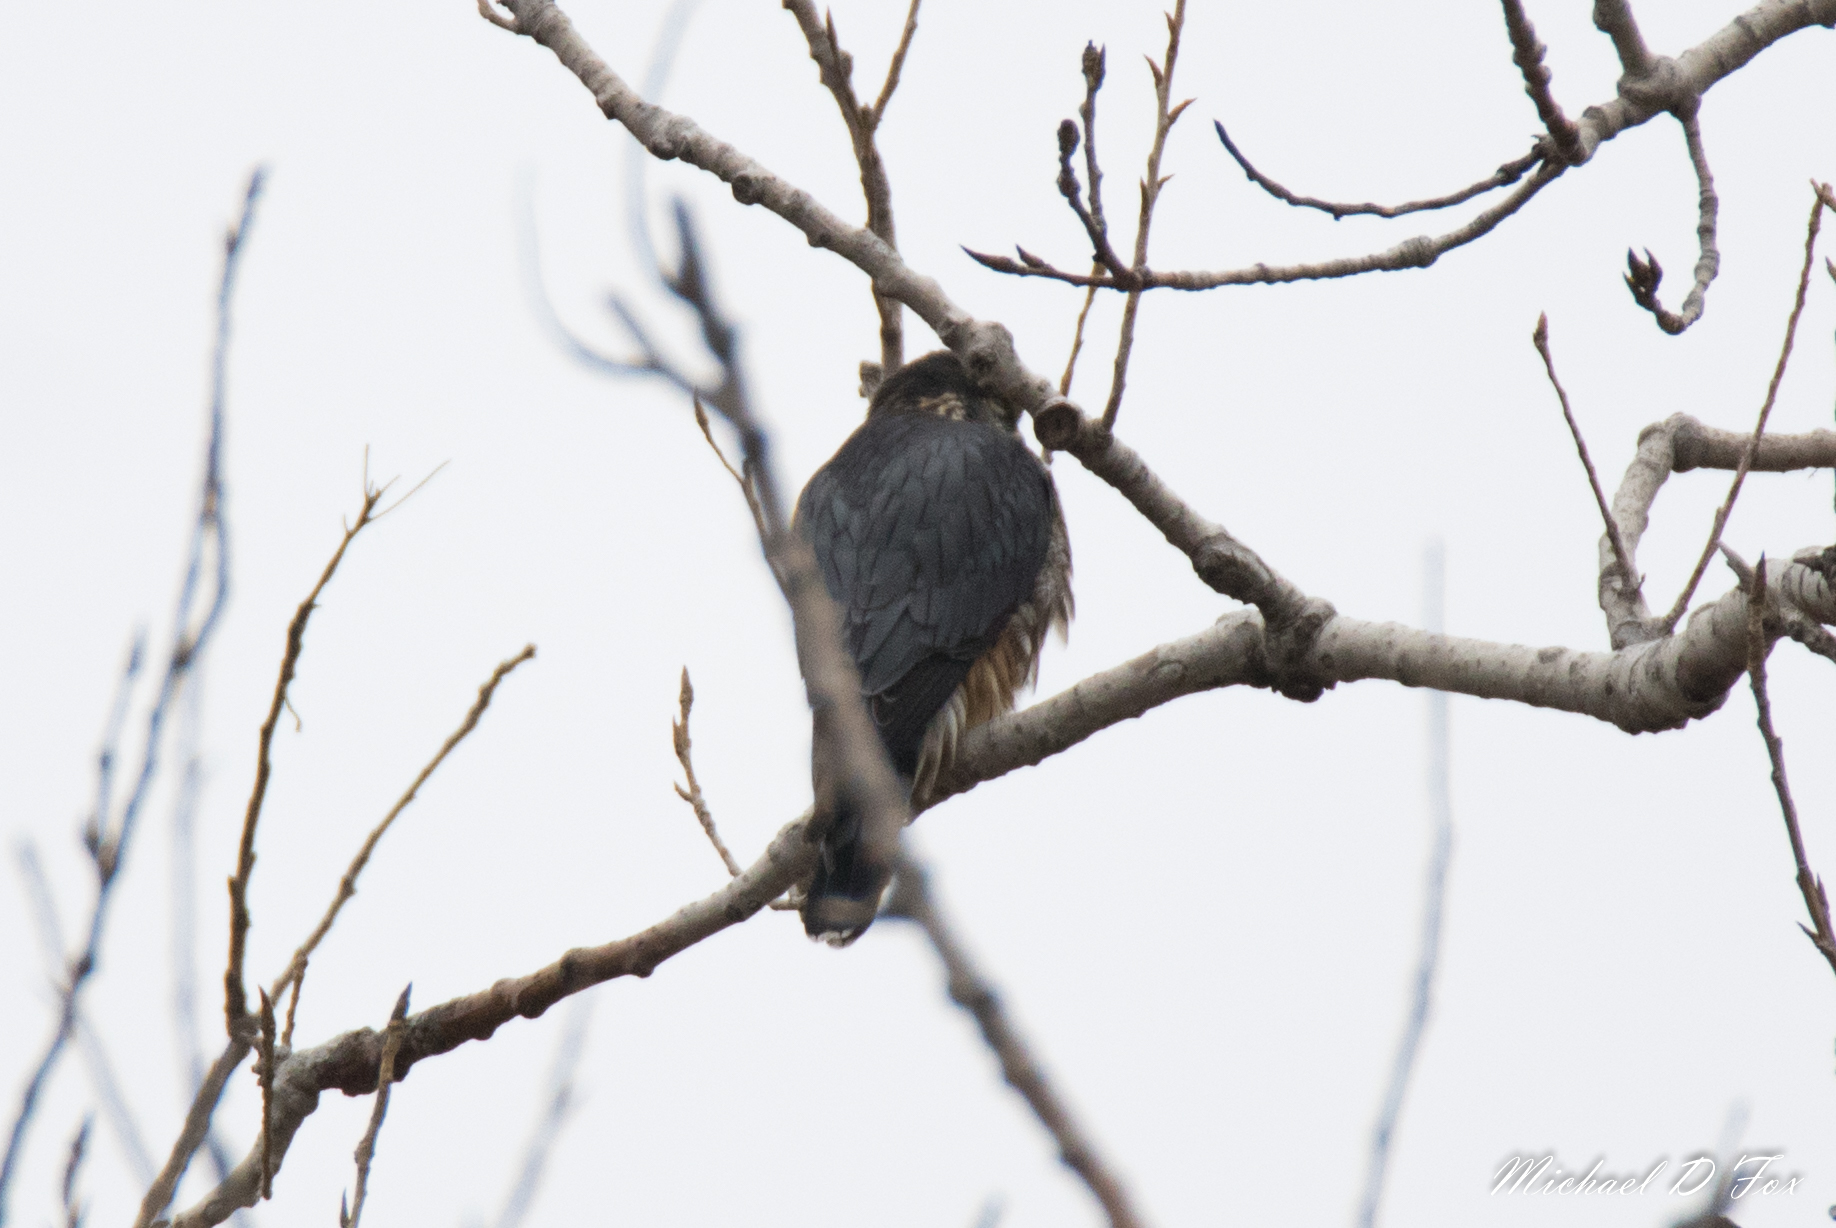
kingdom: Animalia
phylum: Chordata
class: Aves
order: Falconiformes
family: Falconidae
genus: Falco
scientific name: Falco columbarius
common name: Merlin
